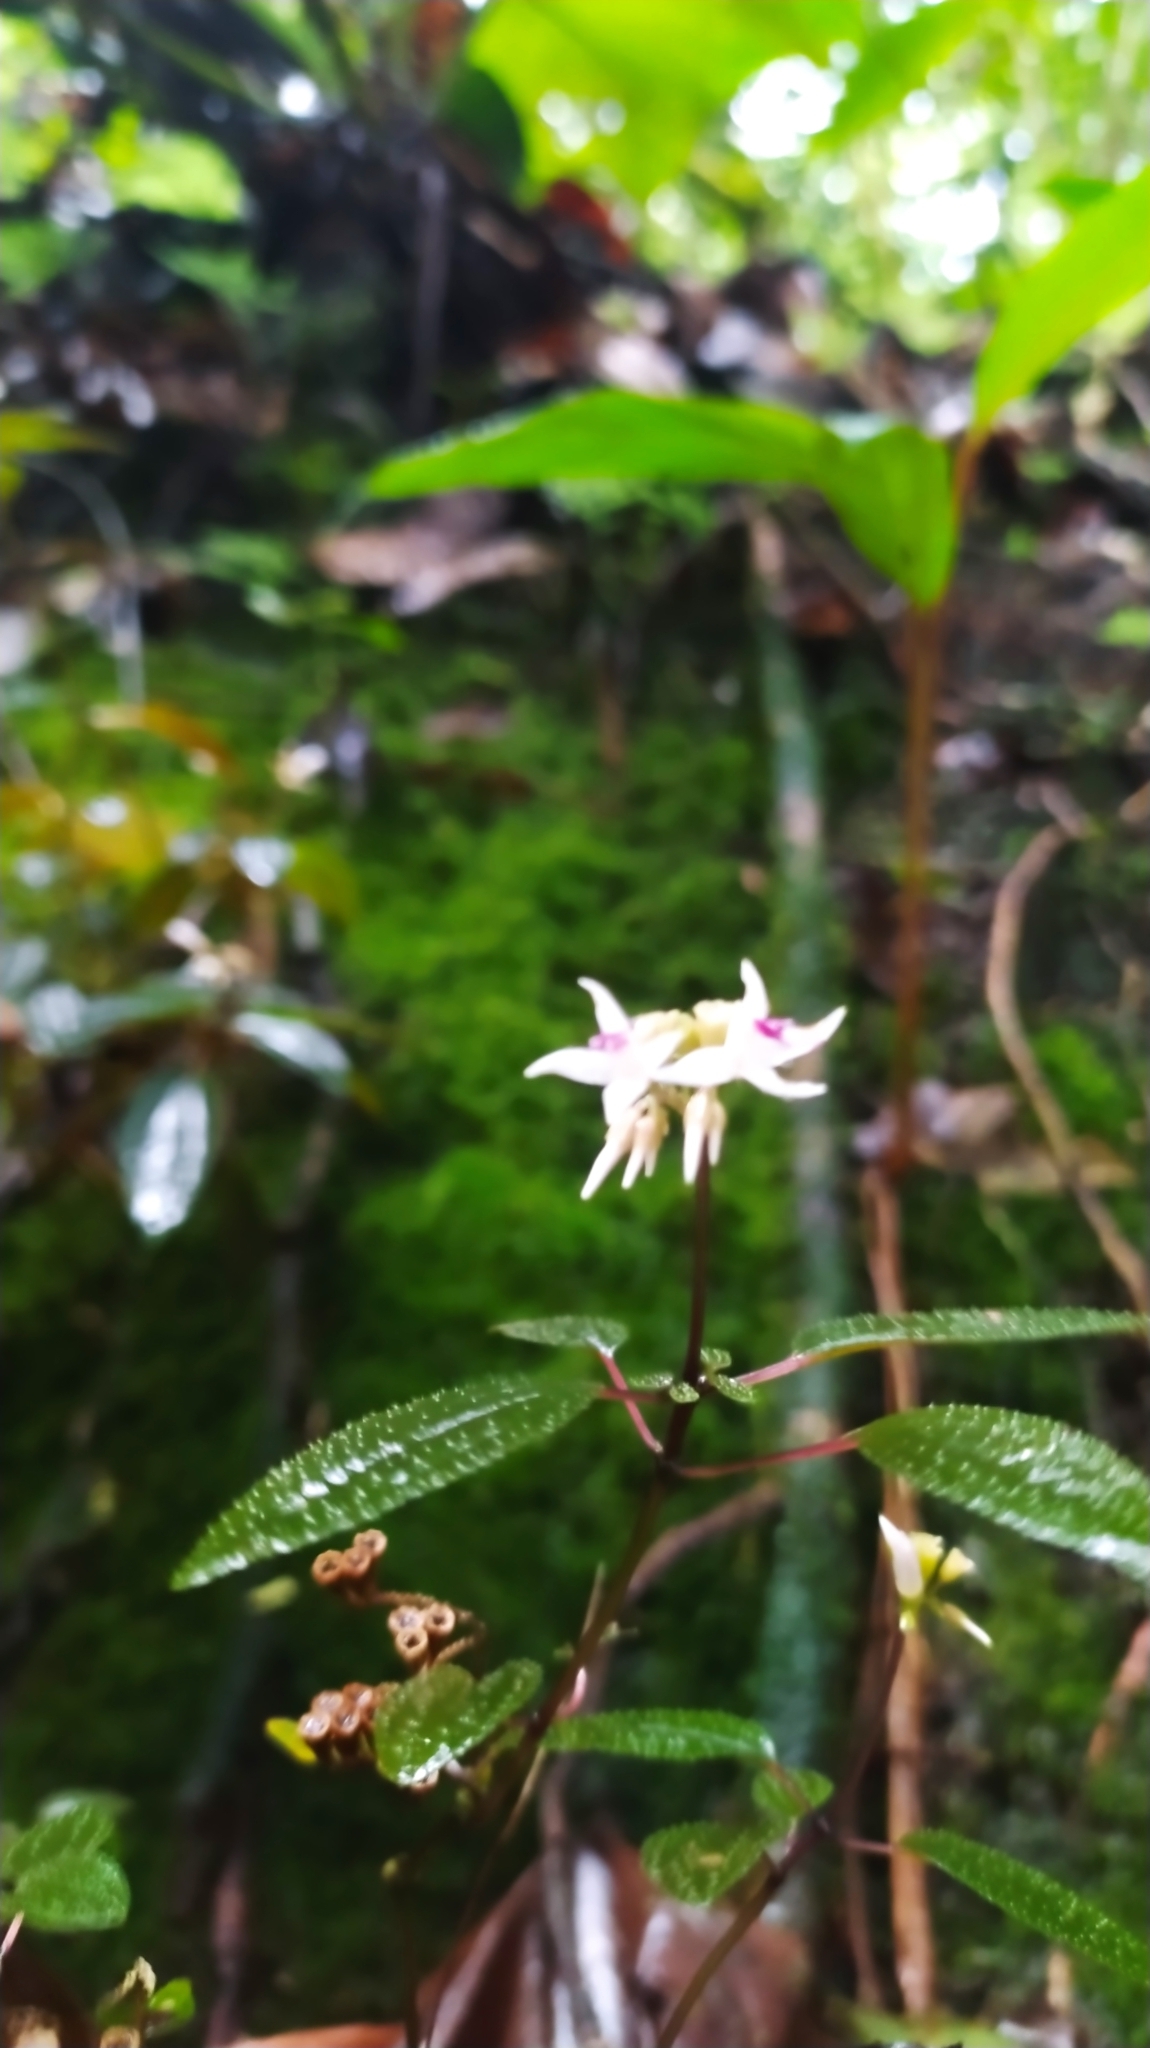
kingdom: Plantae
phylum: Tracheophyta
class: Magnoliopsida
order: Myrtales
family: Melastomataceae
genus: Macrocentrum
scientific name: Macrocentrum cristatum
